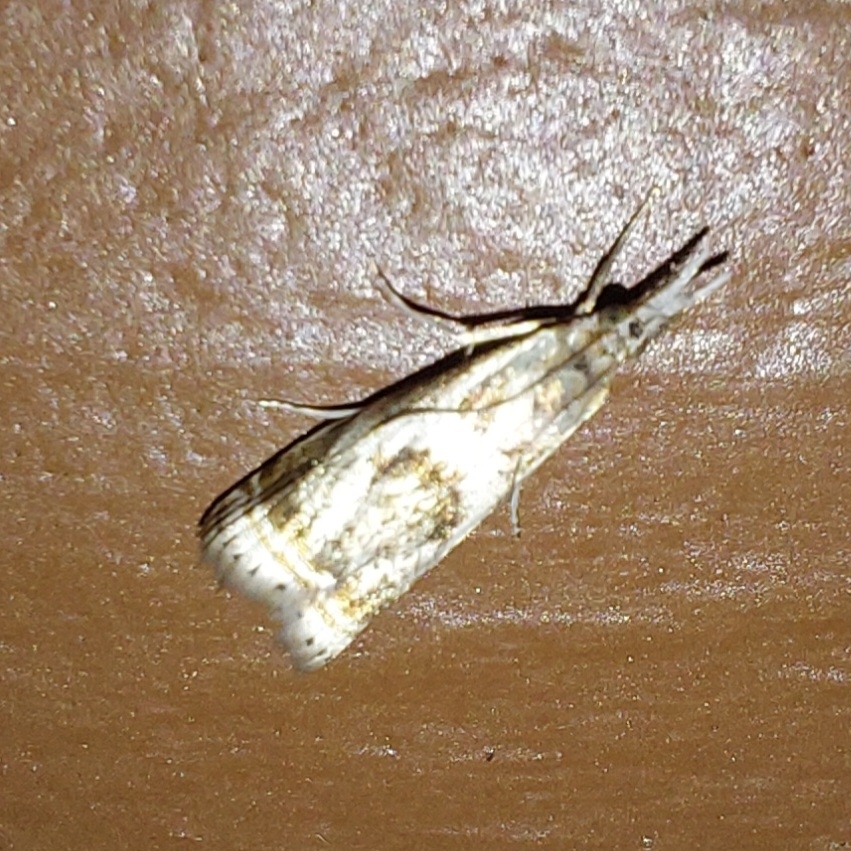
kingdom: Animalia
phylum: Arthropoda
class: Insecta
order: Lepidoptera
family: Crambidae
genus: Microcrambus
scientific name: Microcrambus elegans
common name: Elegant grass-veneer
